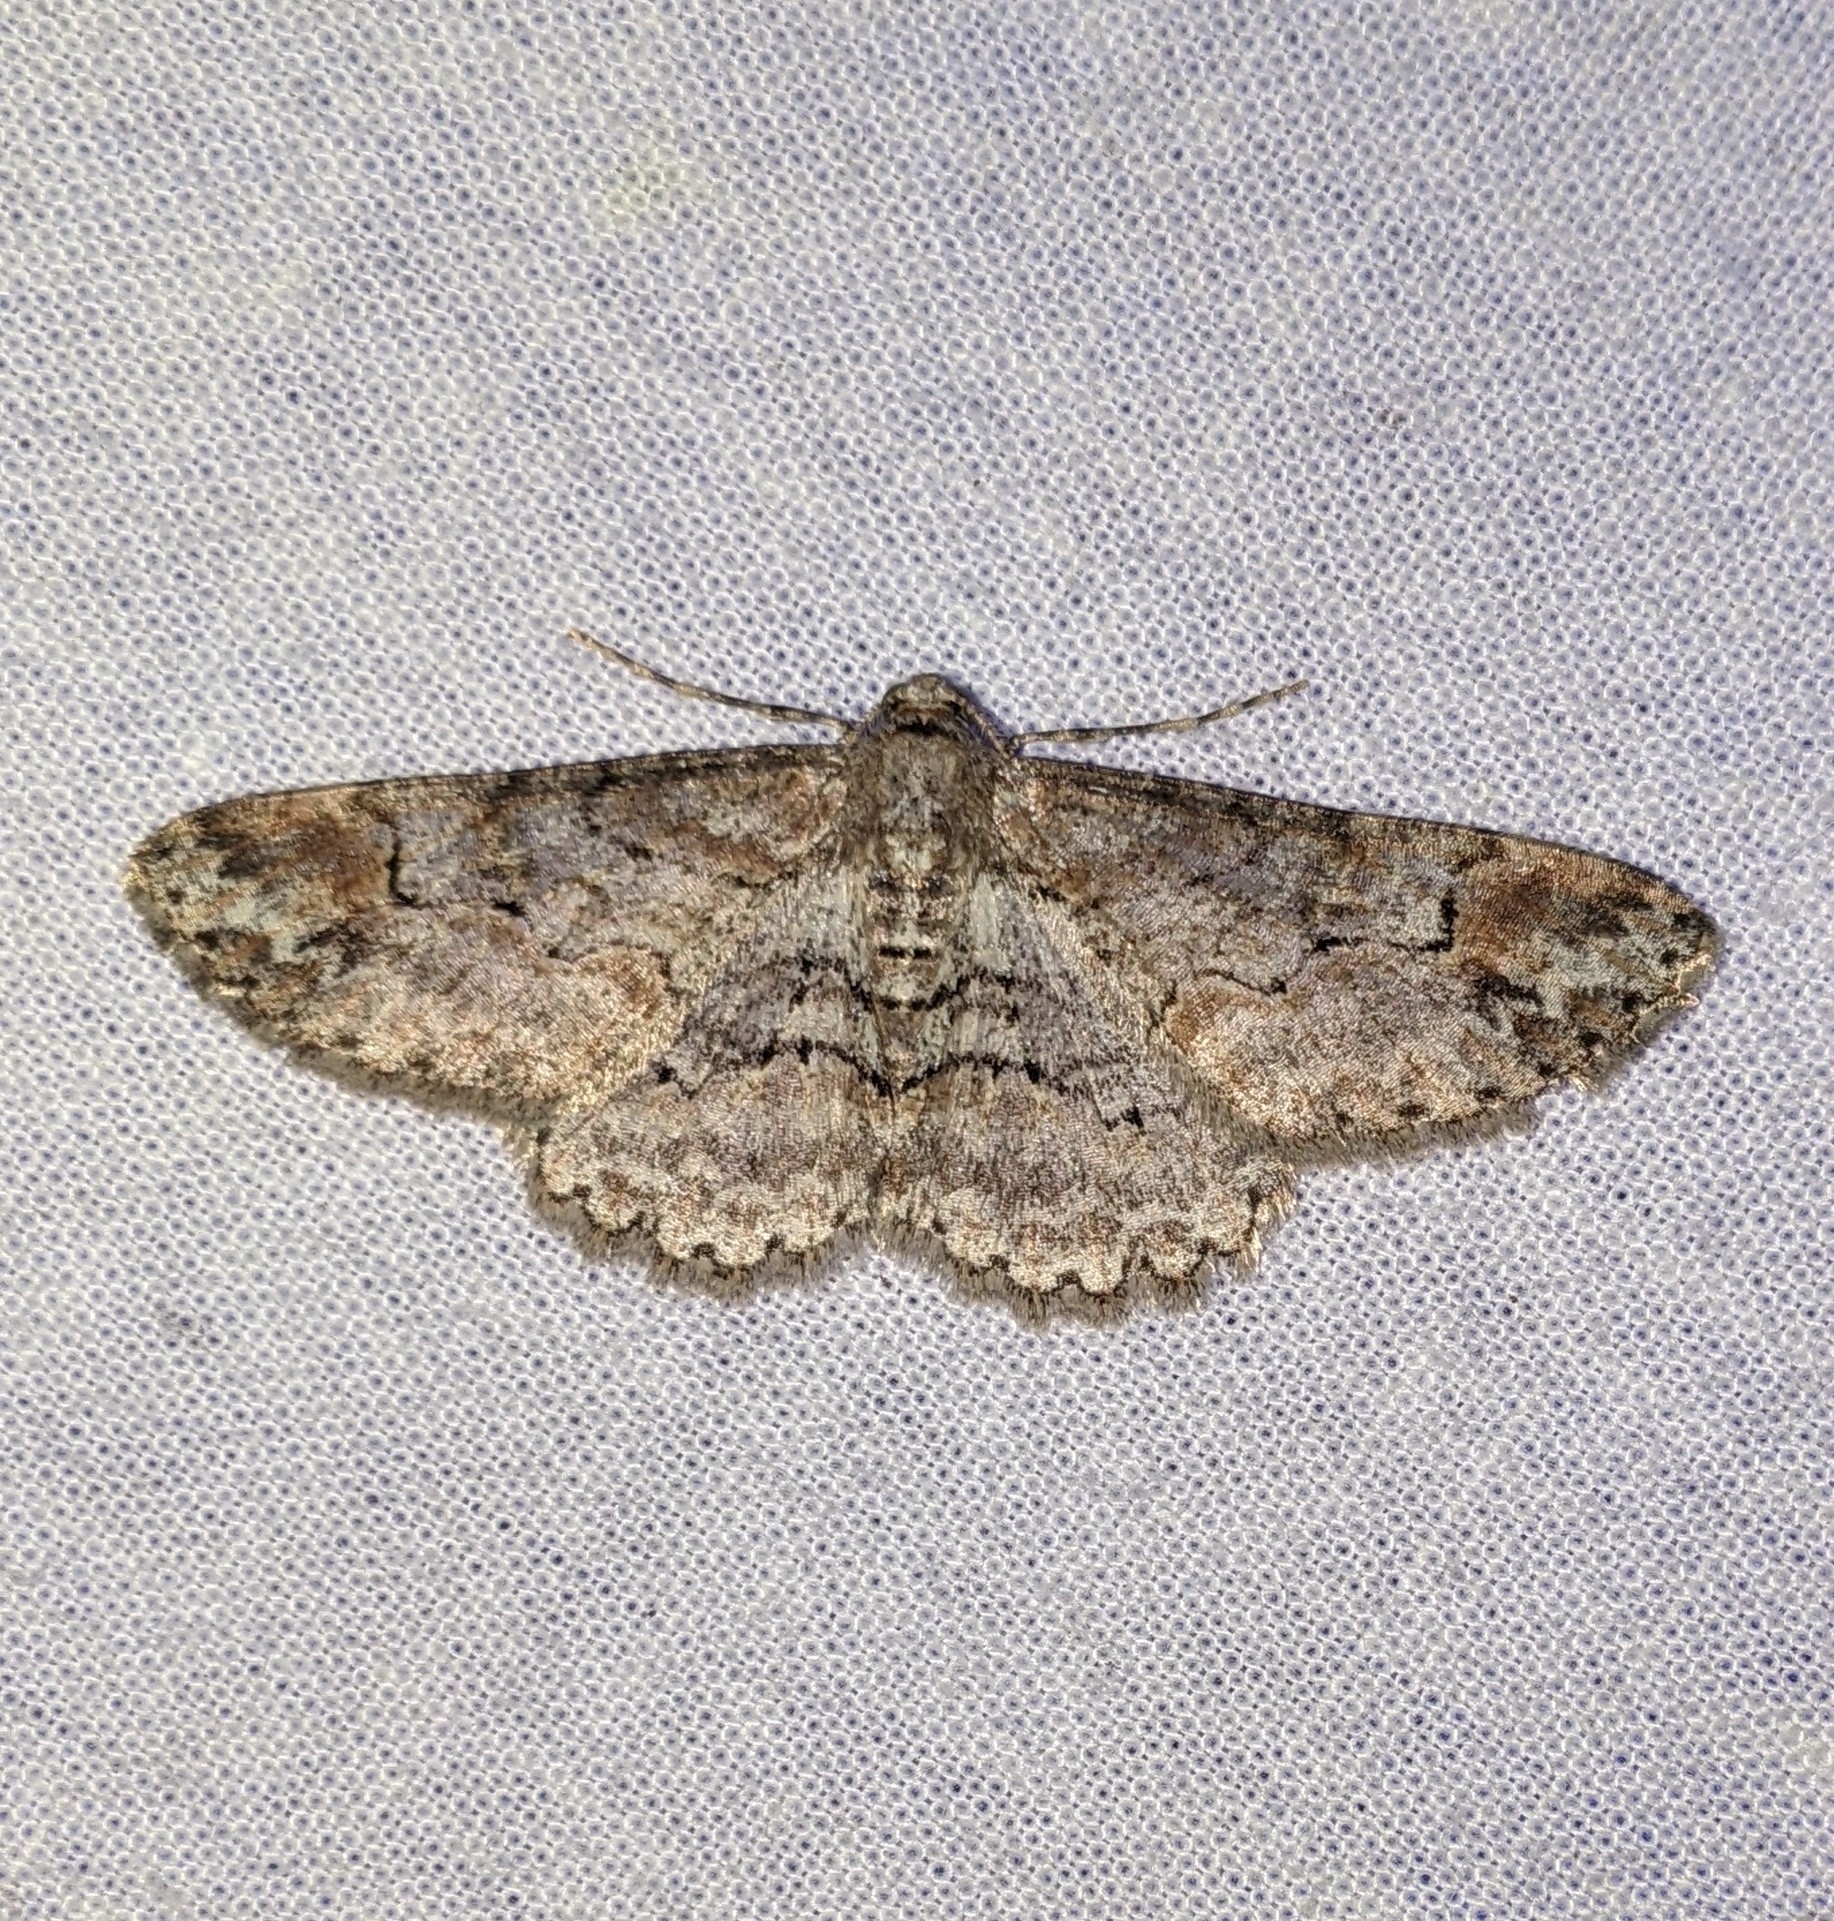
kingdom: Animalia
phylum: Arthropoda
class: Insecta
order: Lepidoptera
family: Geometridae
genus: Iridopsis
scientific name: Iridopsis emasculatum
